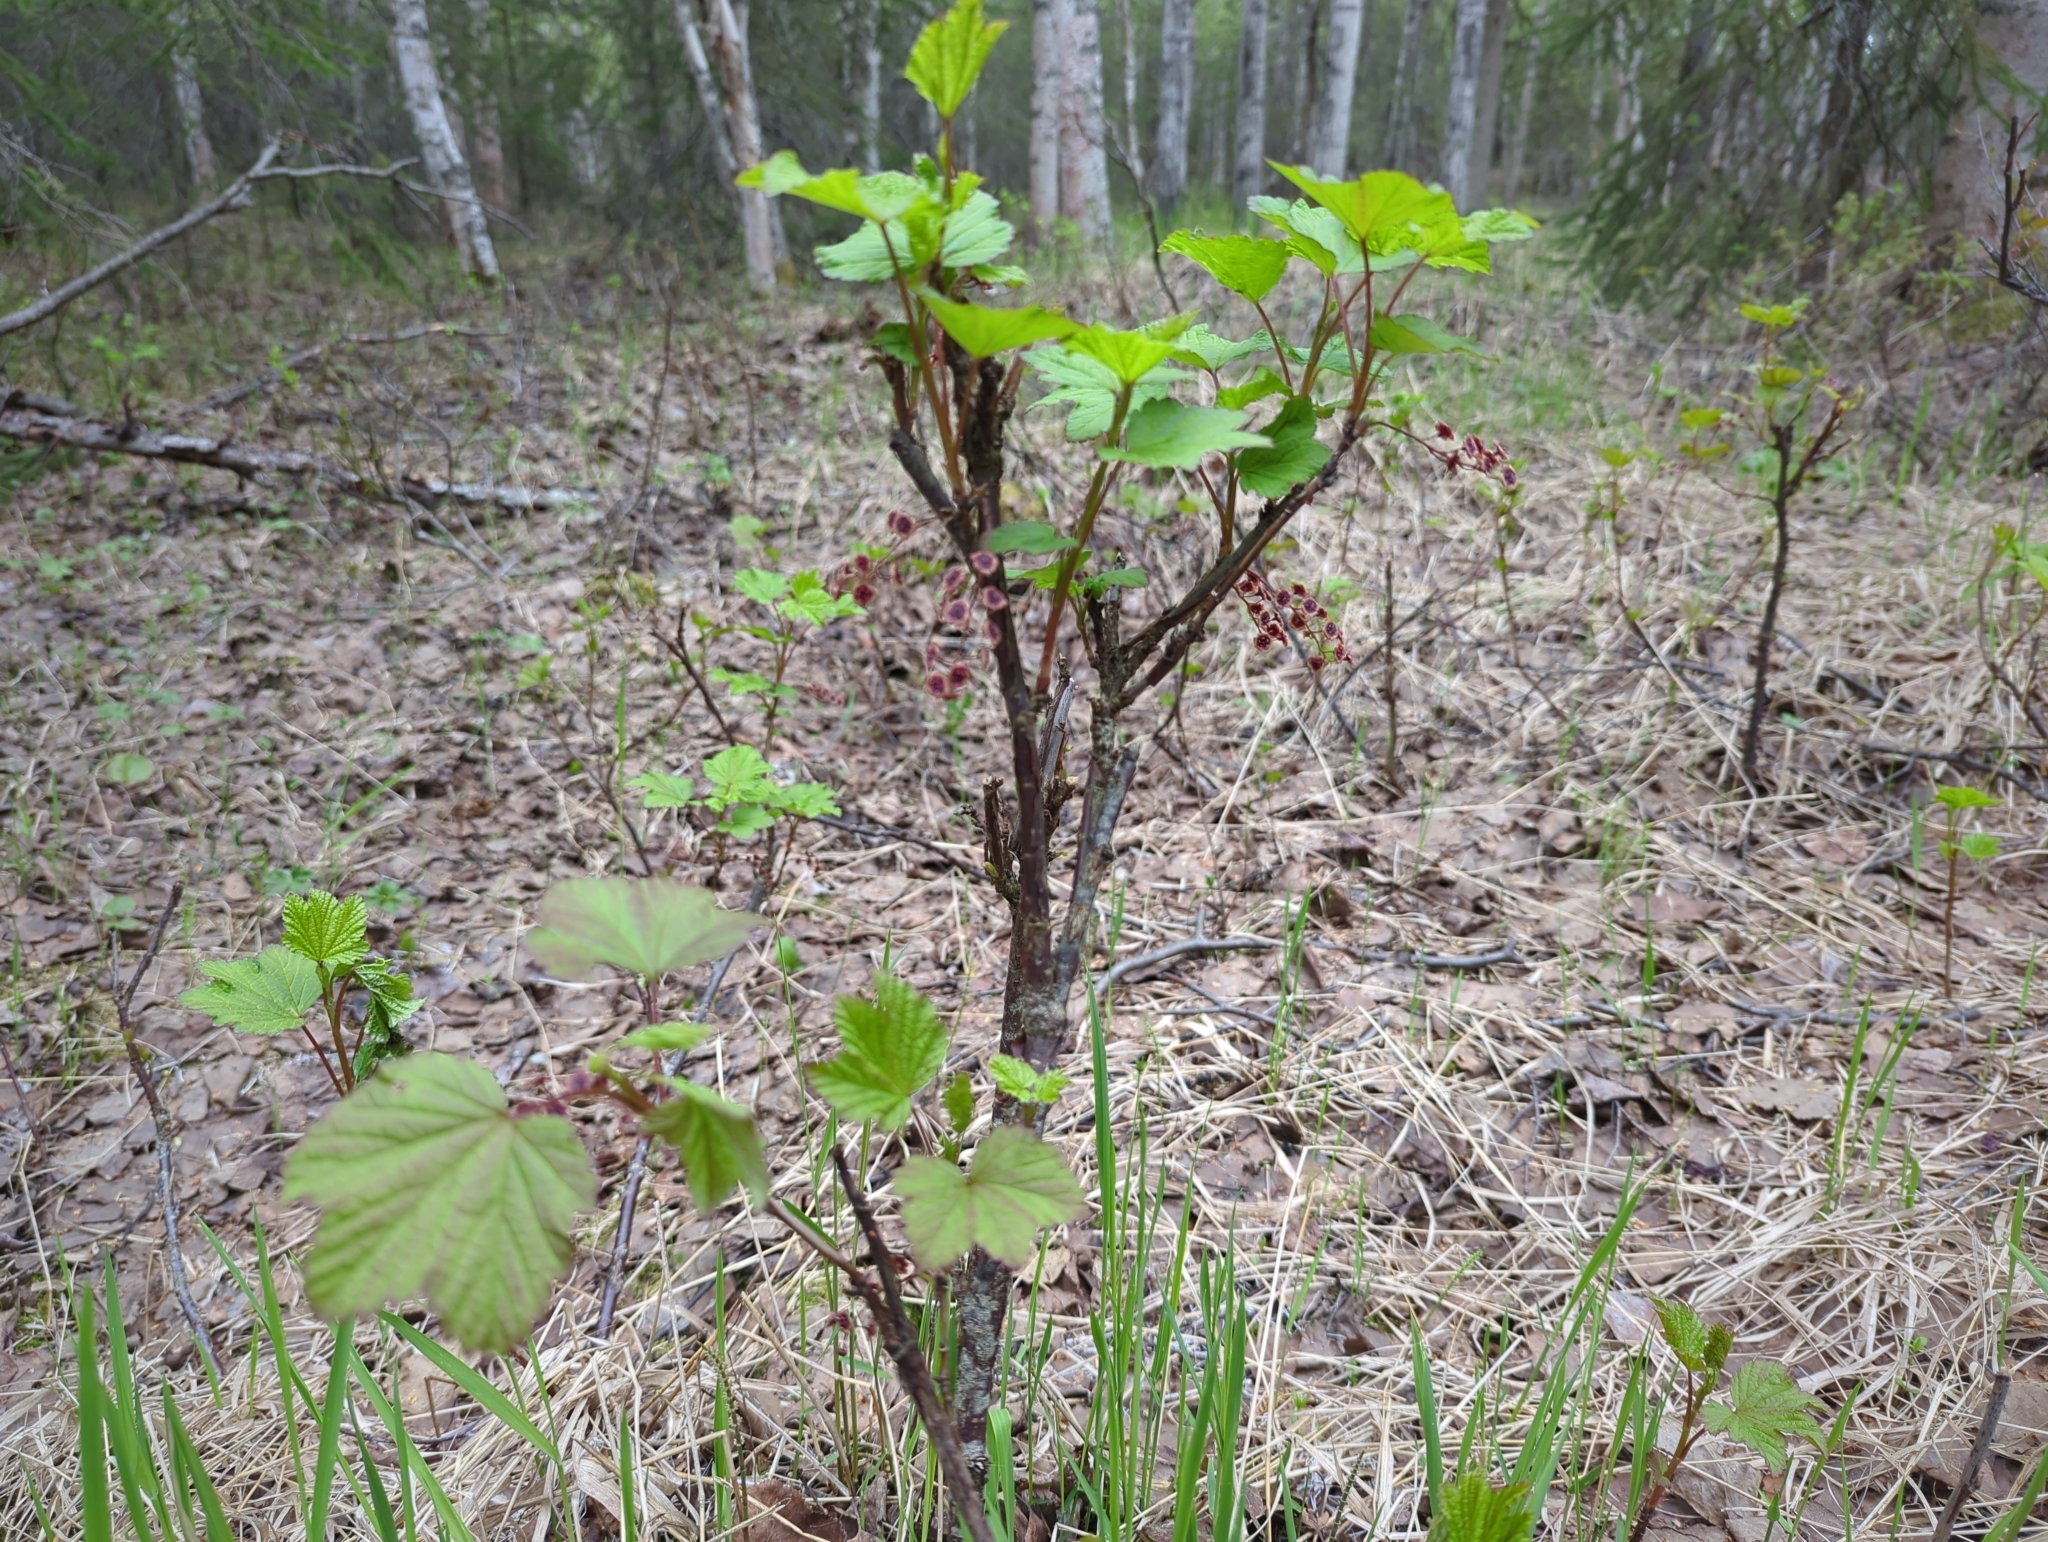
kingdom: Plantae
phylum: Tracheophyta
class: Magnoliopsida
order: Saxifragales
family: Grossulariaceae
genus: Ribes
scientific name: Ribes triste
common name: Swamp red currant
